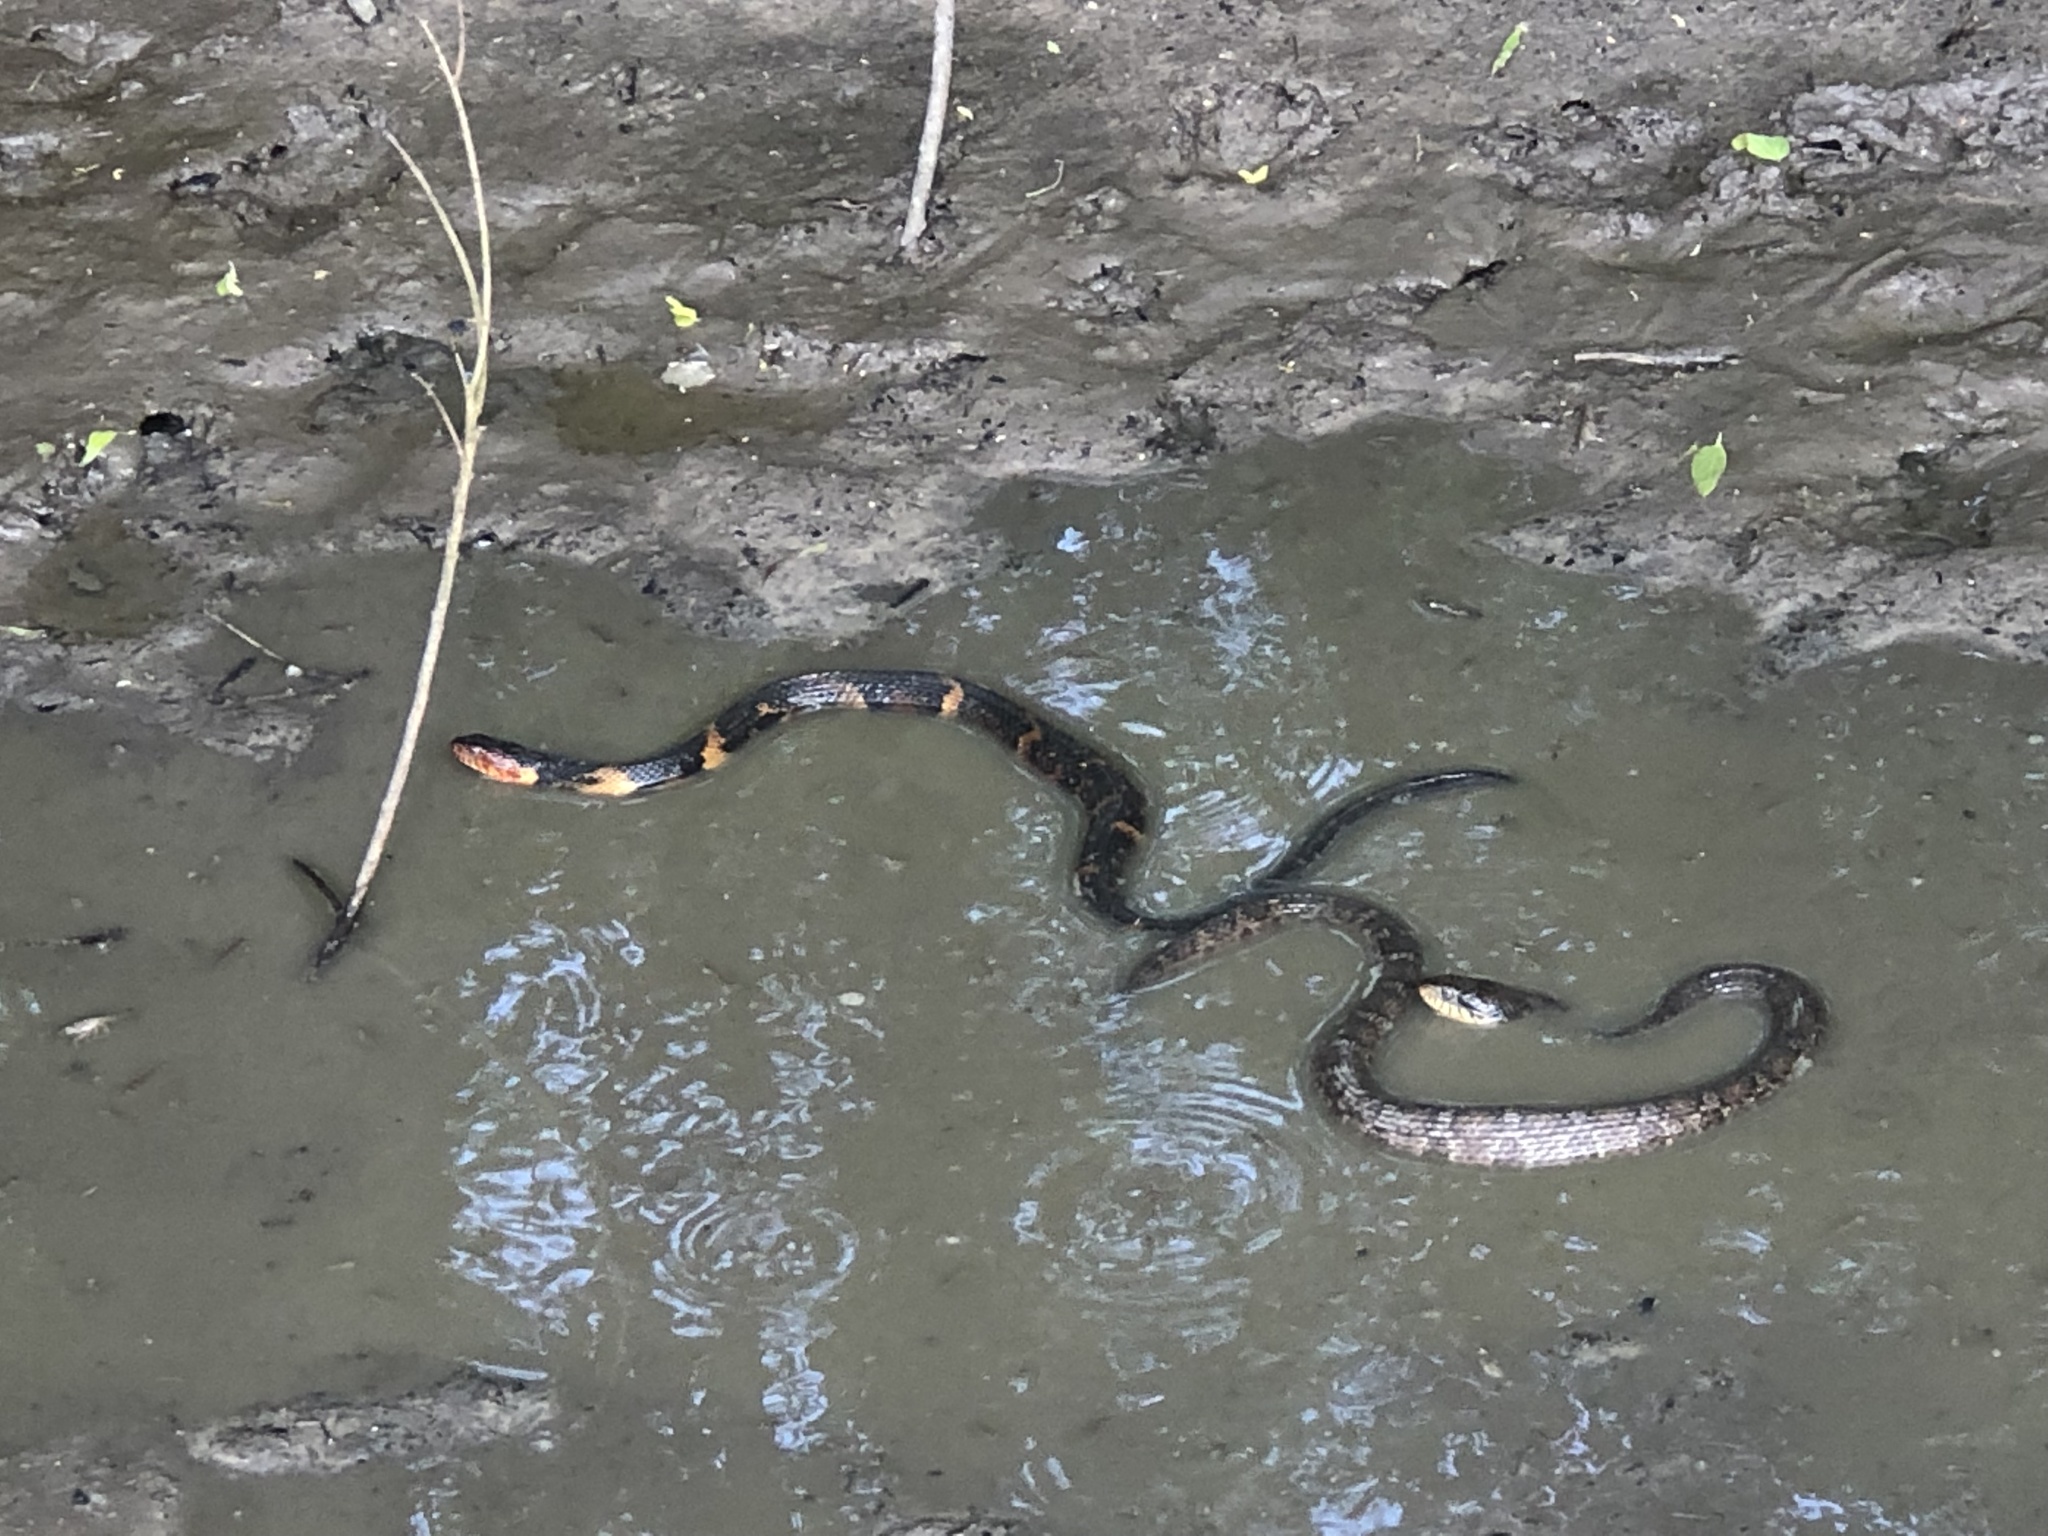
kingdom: Animalia
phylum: Chordata
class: Squamata
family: Colubridae
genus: Nerodia
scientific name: Nerodia fasciata
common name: Southern water snake
